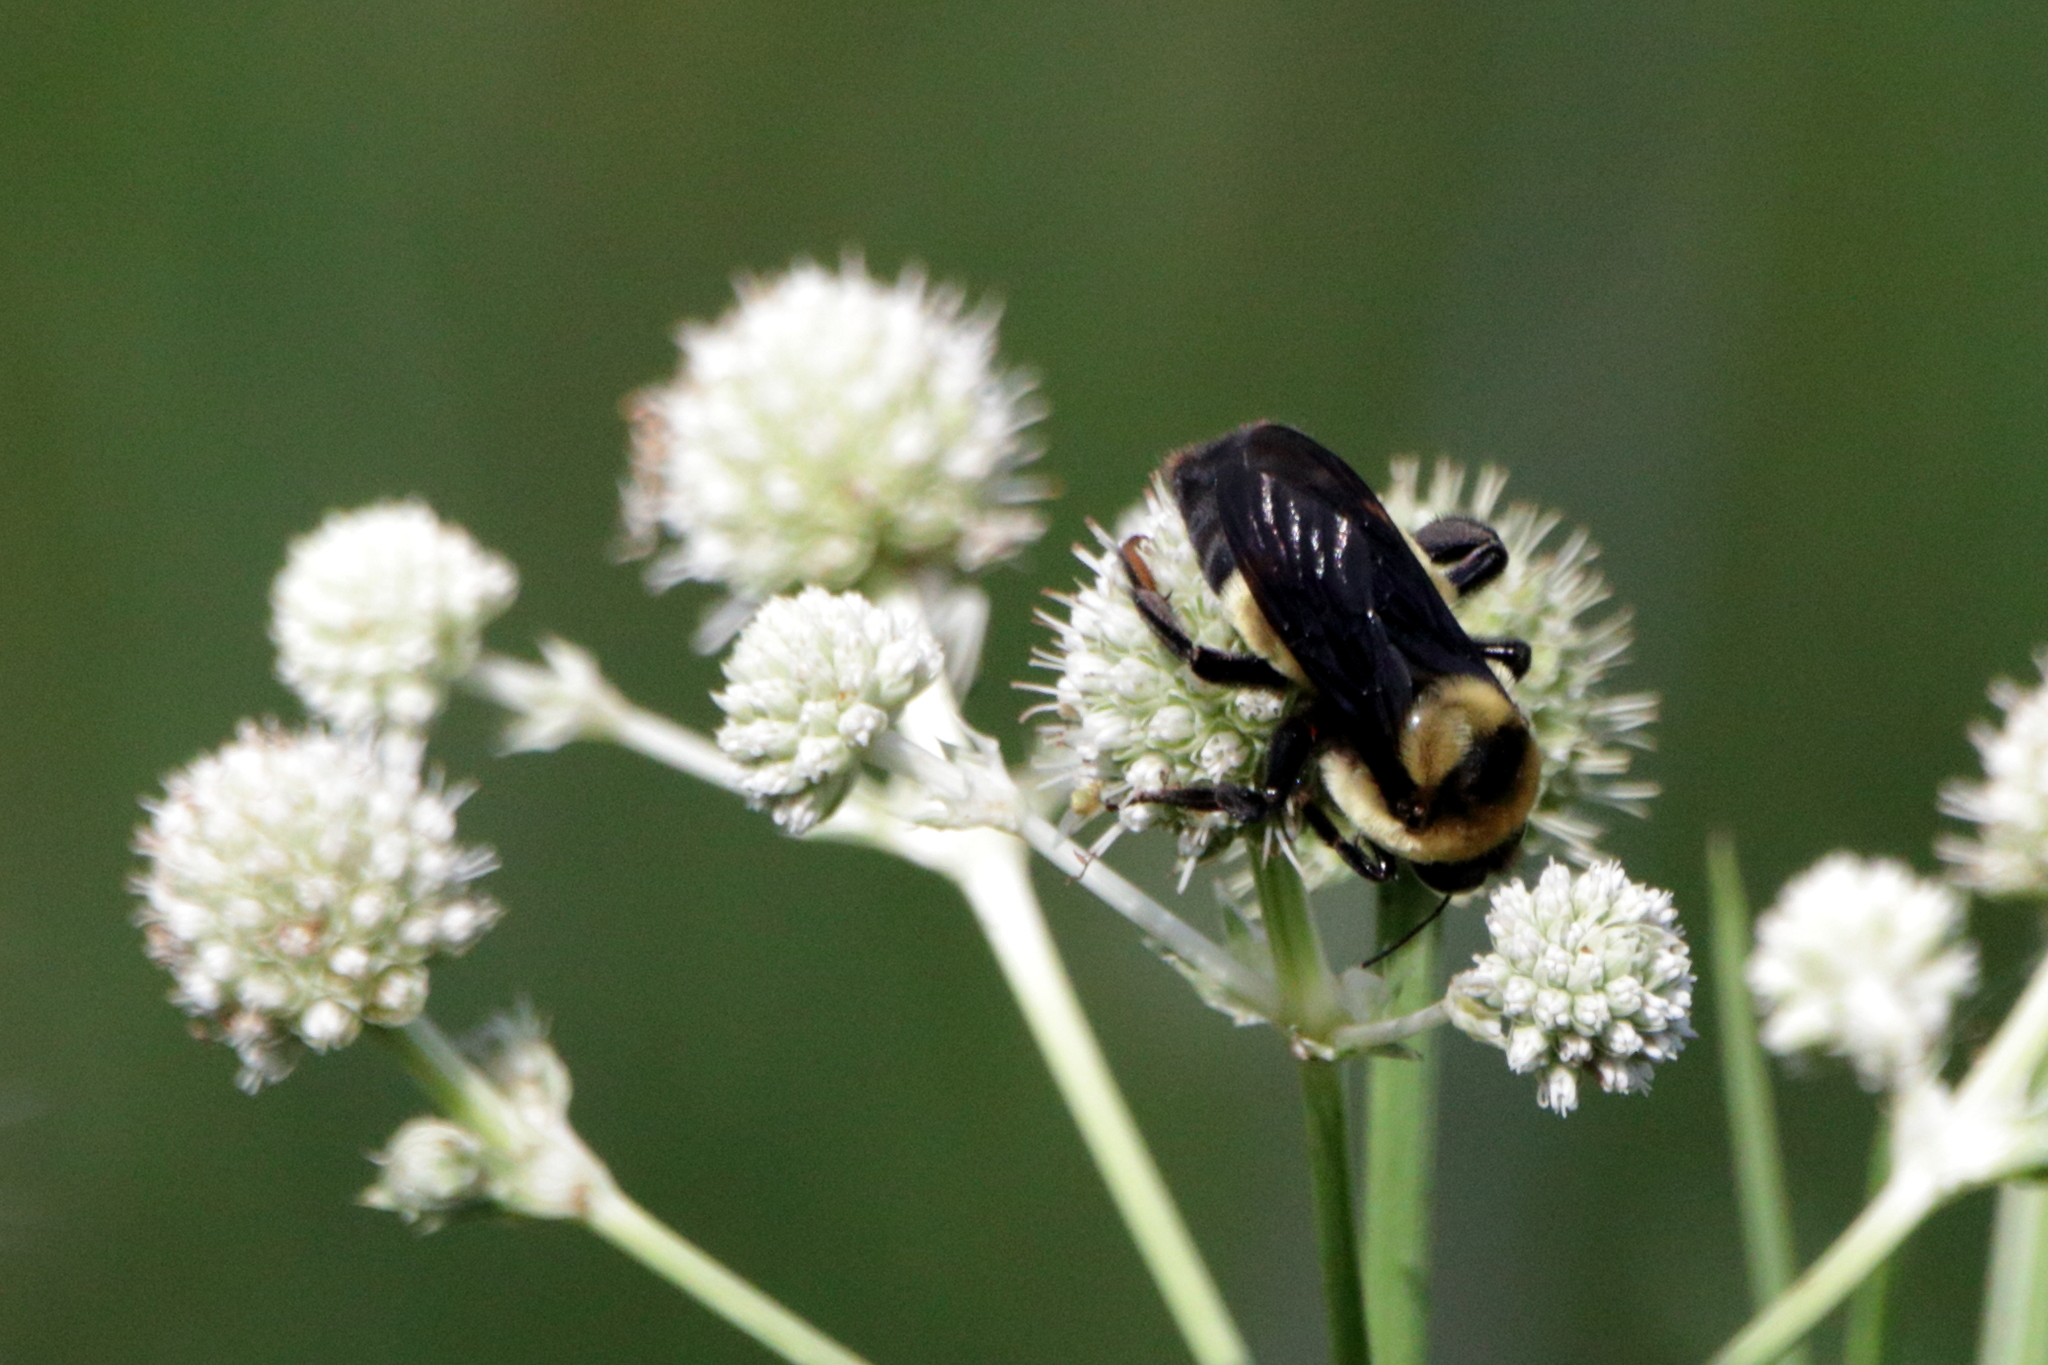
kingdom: Animalia
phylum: Arthropoda
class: Insecta
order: Hymenoptera
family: Apidae
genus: Bombus
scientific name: Bombus fraternus
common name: Southern plains bumble bee
